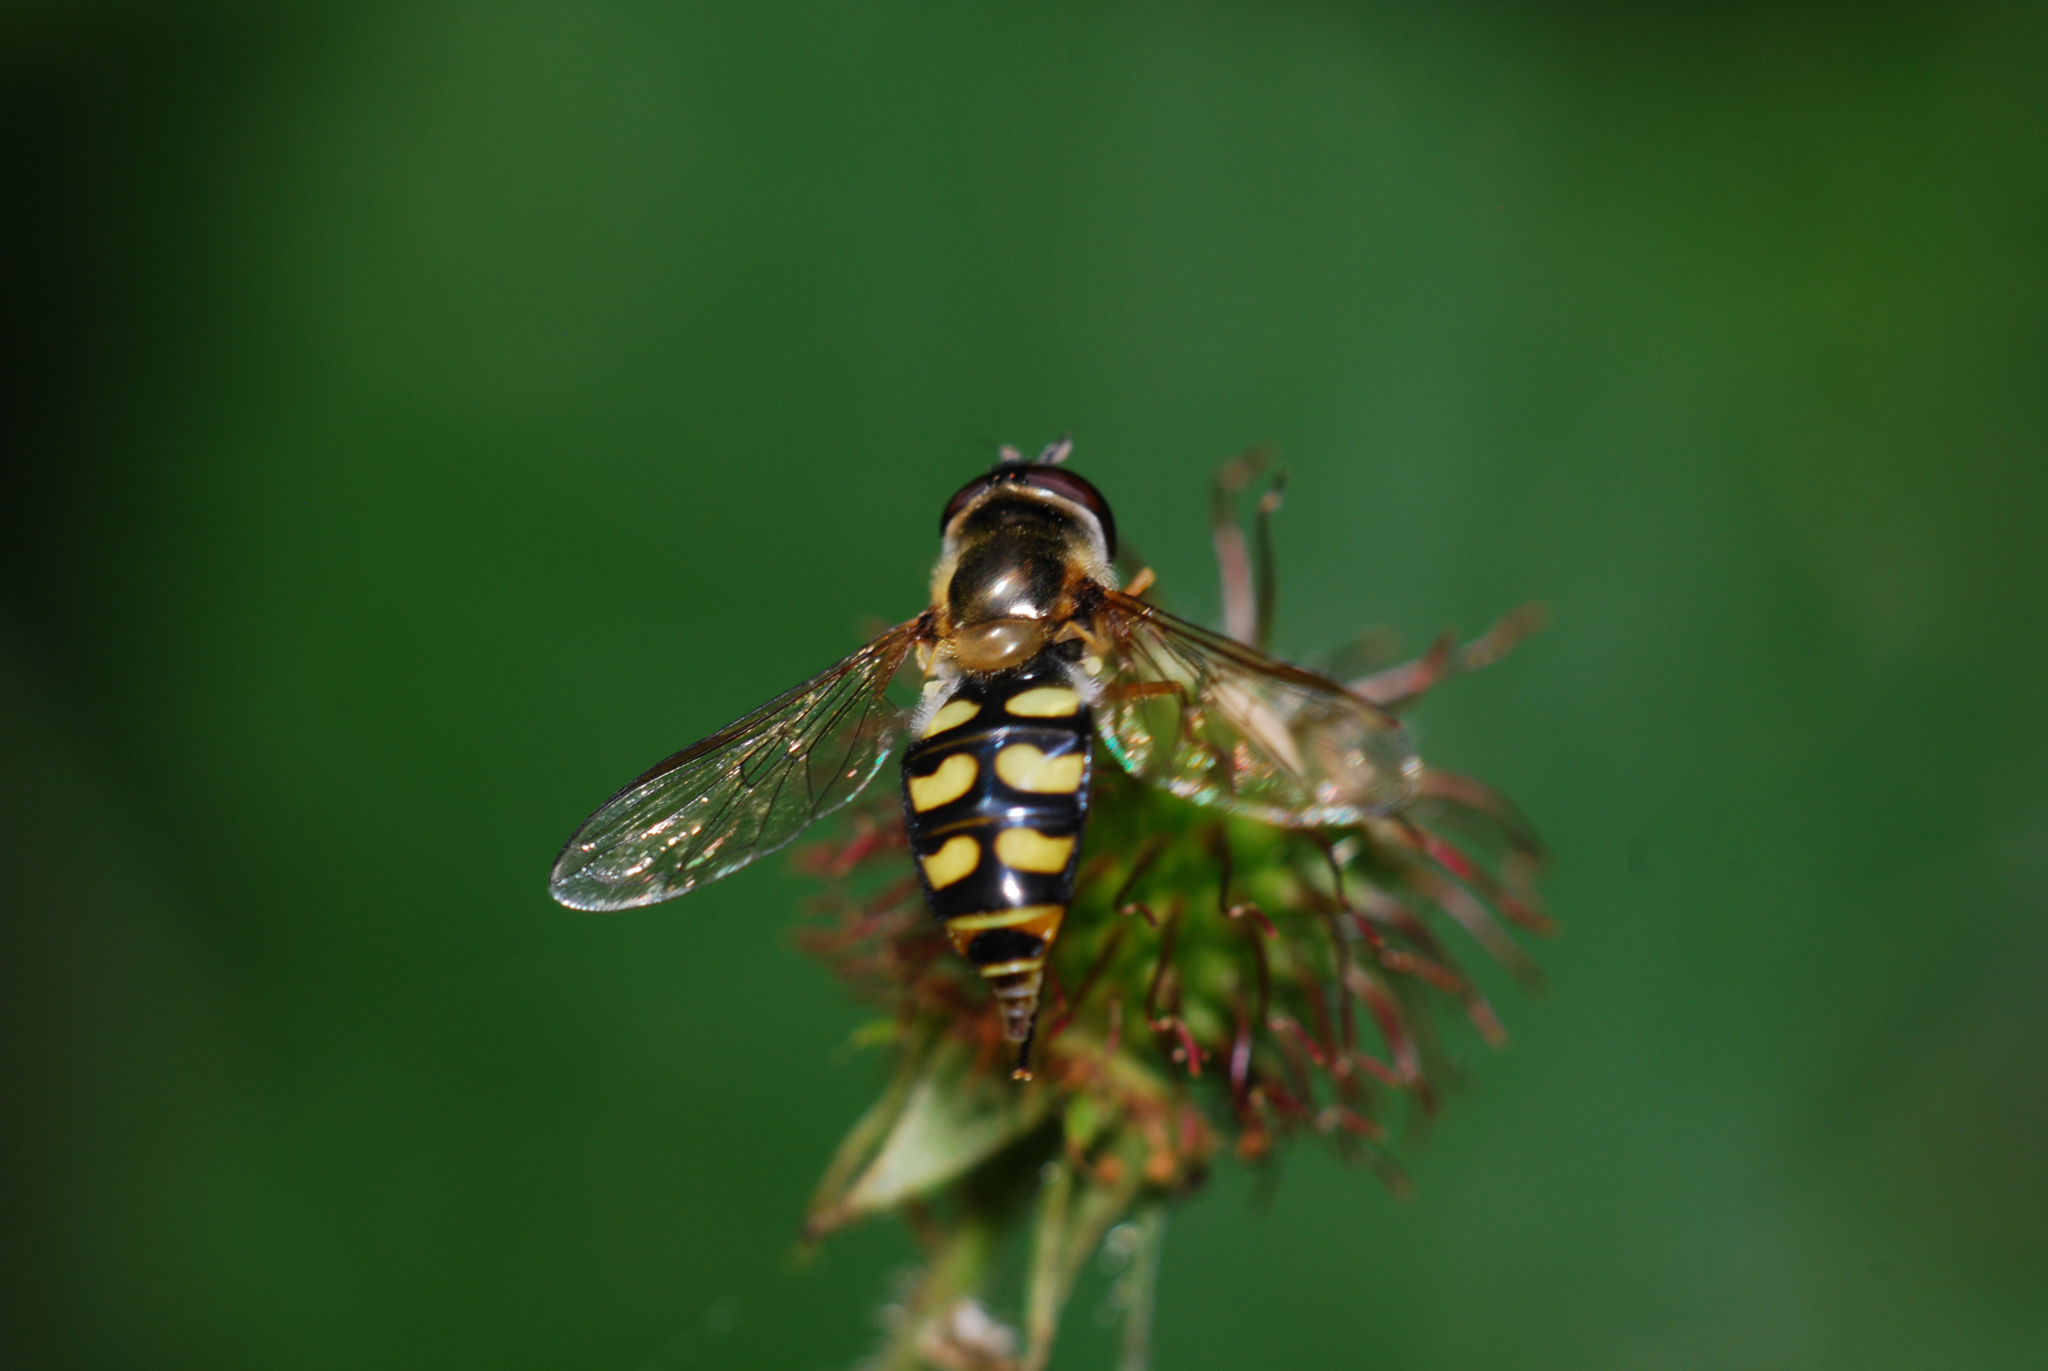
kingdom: Animalia
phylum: Arthropoda
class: Insecta
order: Diptera
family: Syrphidae
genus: Eupeodes
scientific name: Eupeodes
